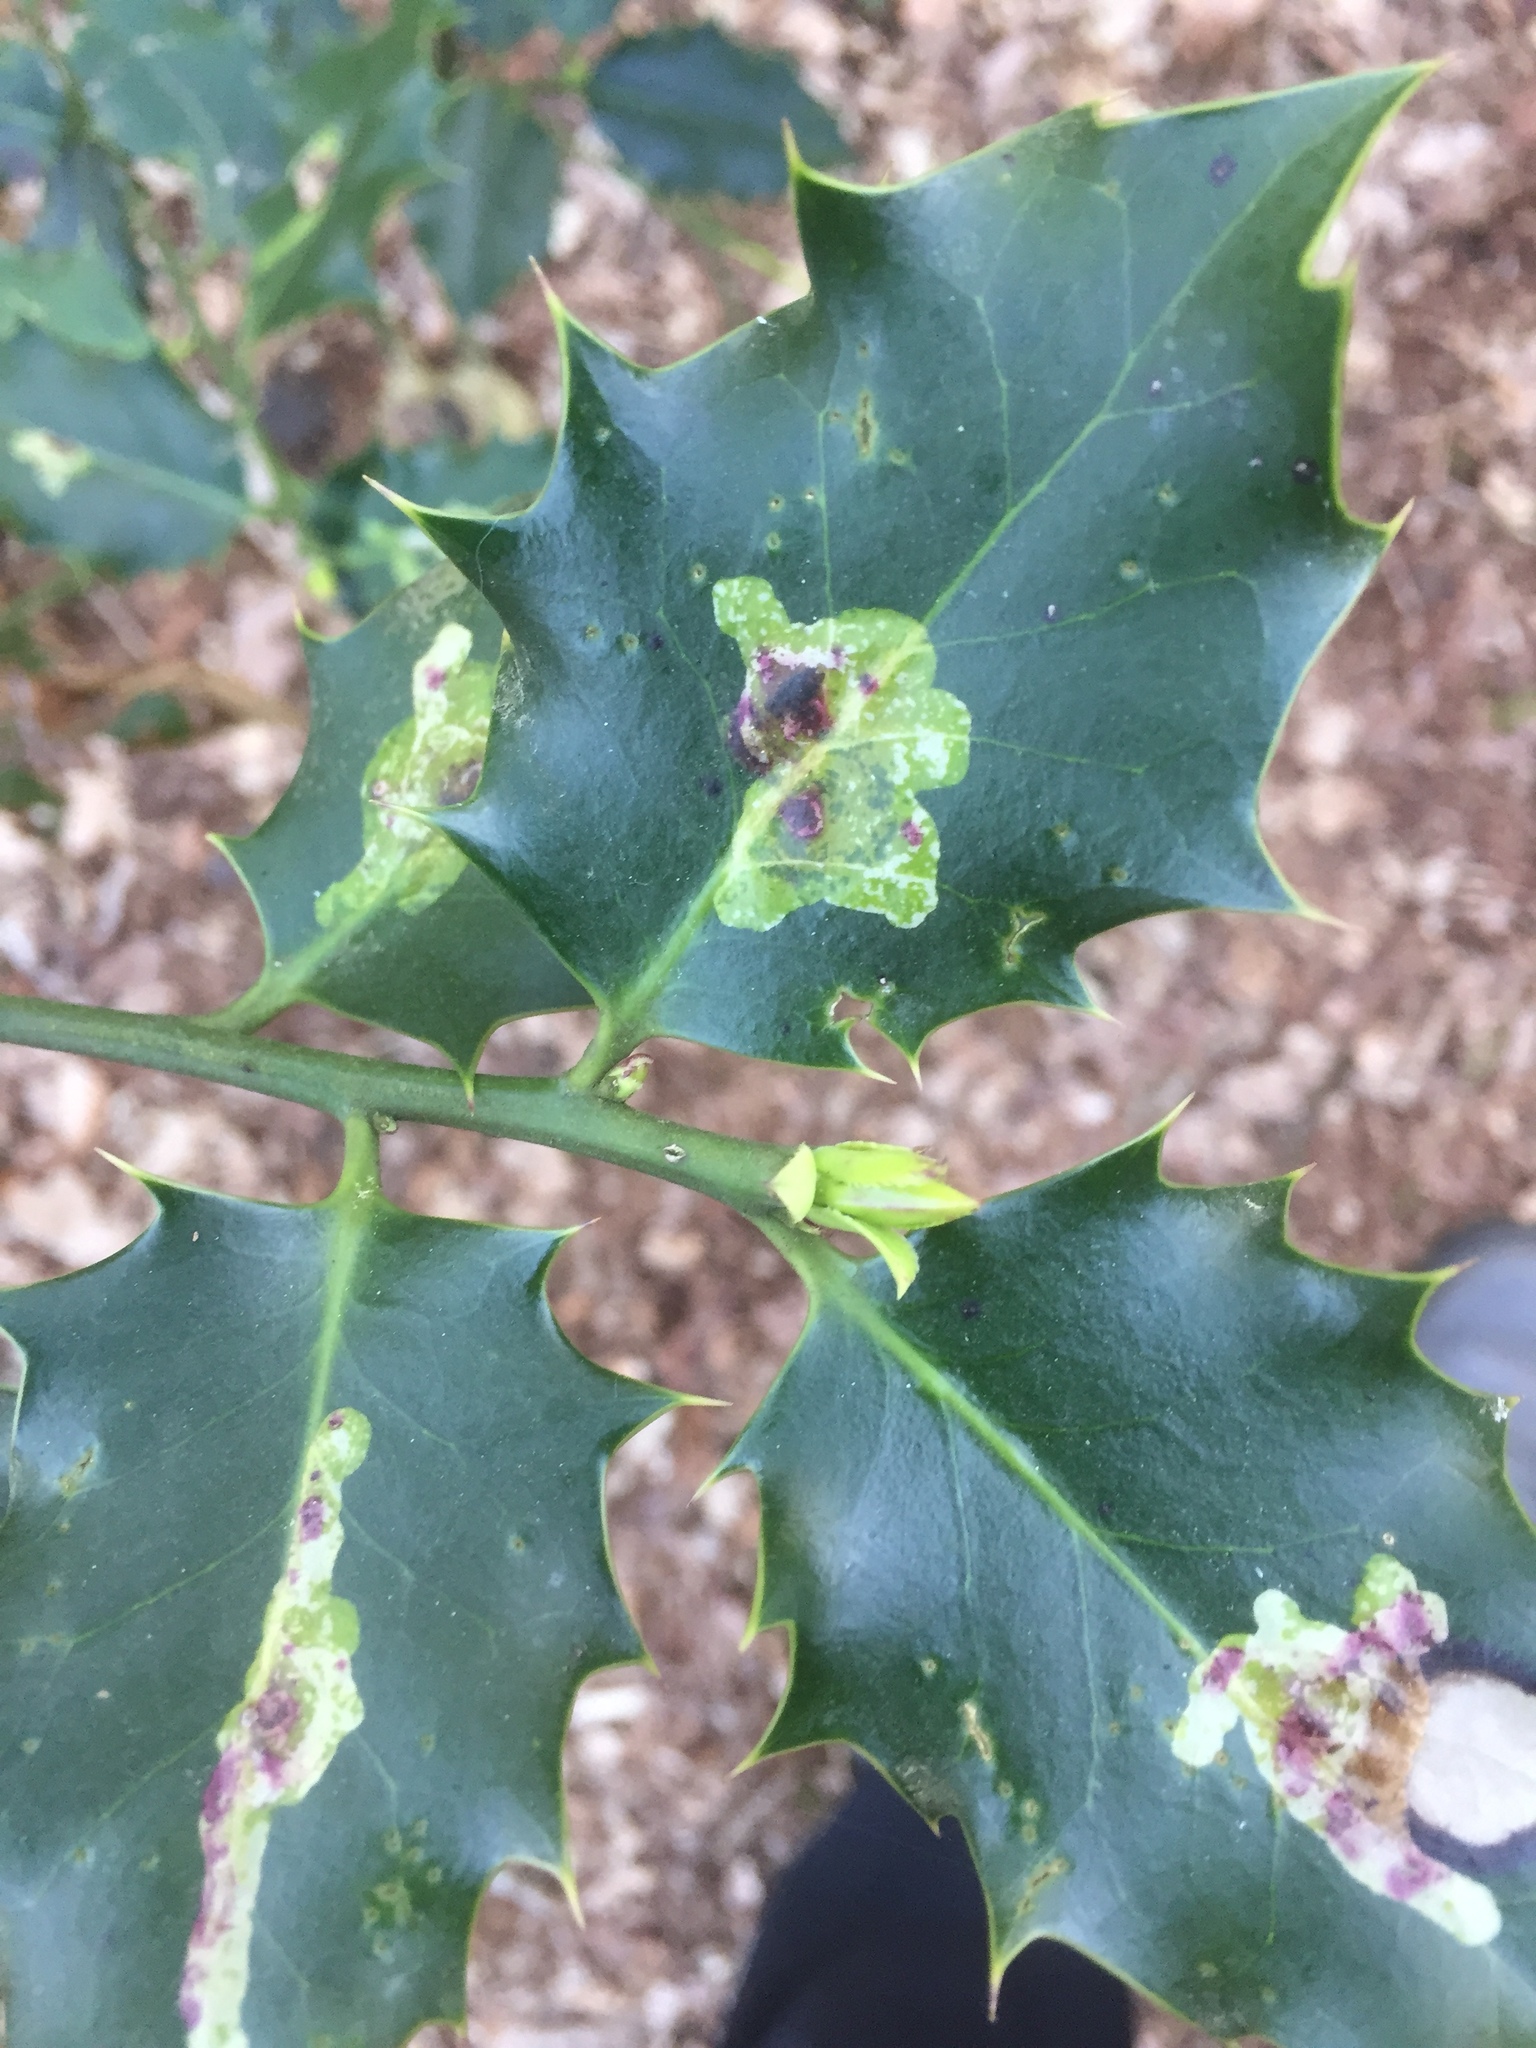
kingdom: Animalia
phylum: Arthropoda
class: Insecta
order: Diptera
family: Agromyzidae
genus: Phytomyza
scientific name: Phytomyza ilicis
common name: Holly leafminer
